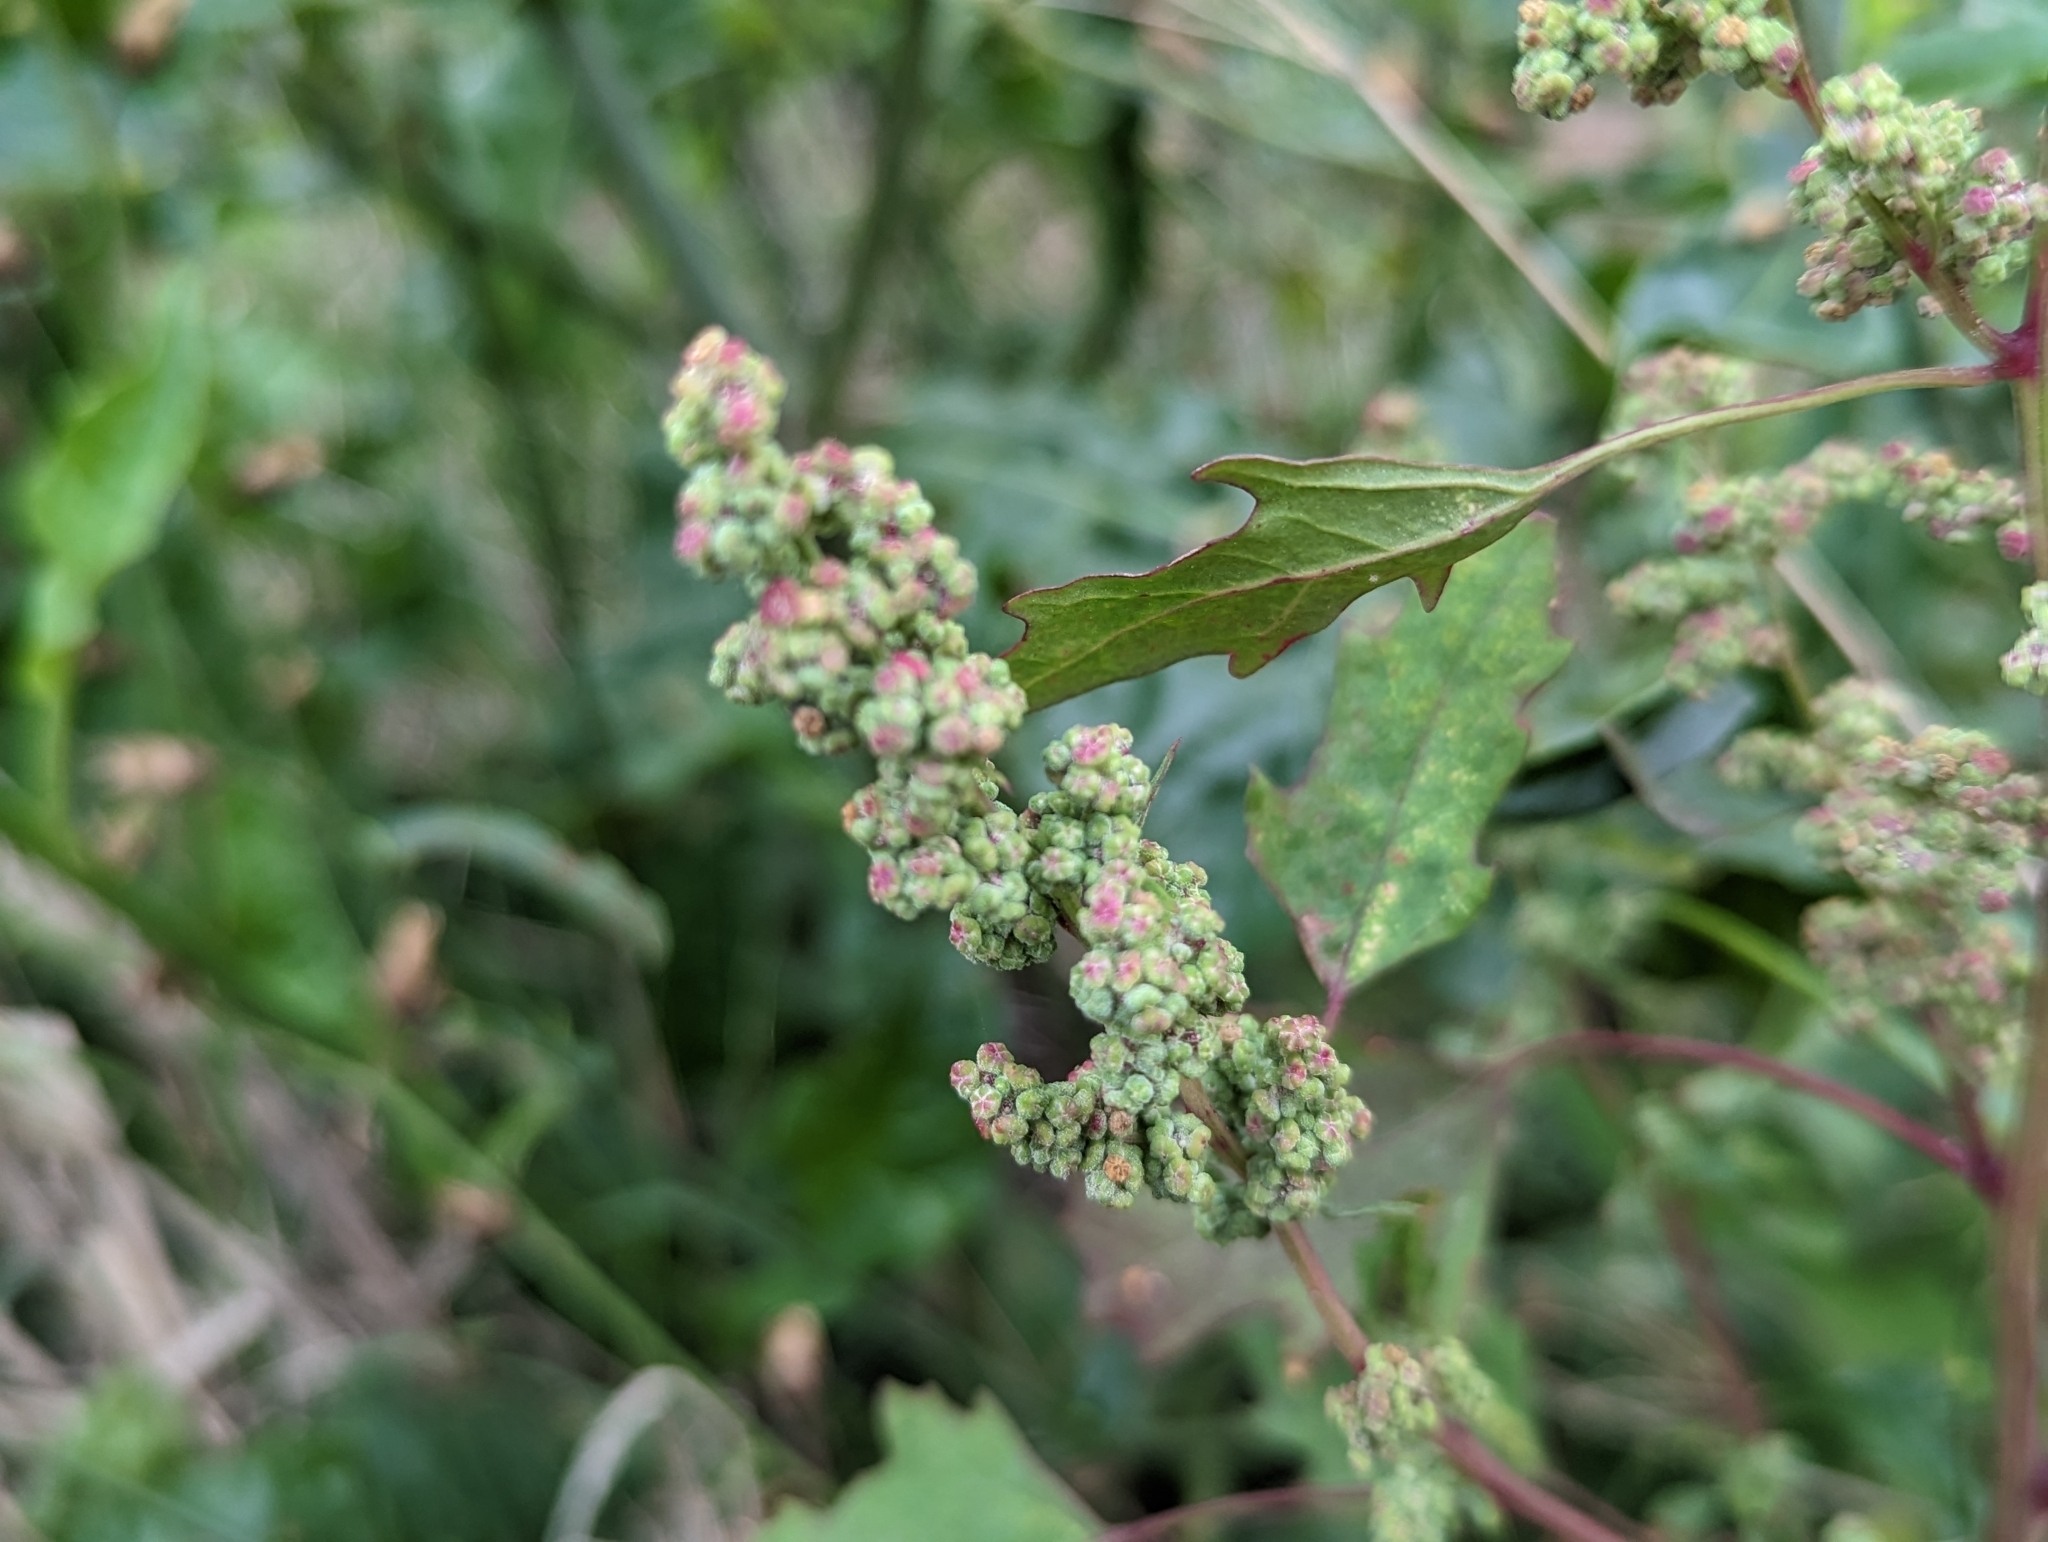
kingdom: Plantae
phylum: Tracheophyta
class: Magnoliopsida
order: Caryophyllales
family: Amaranthaceae
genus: Chenopodium
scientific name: Chenopodium ficifolium
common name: Fig-leaved goosefoot
